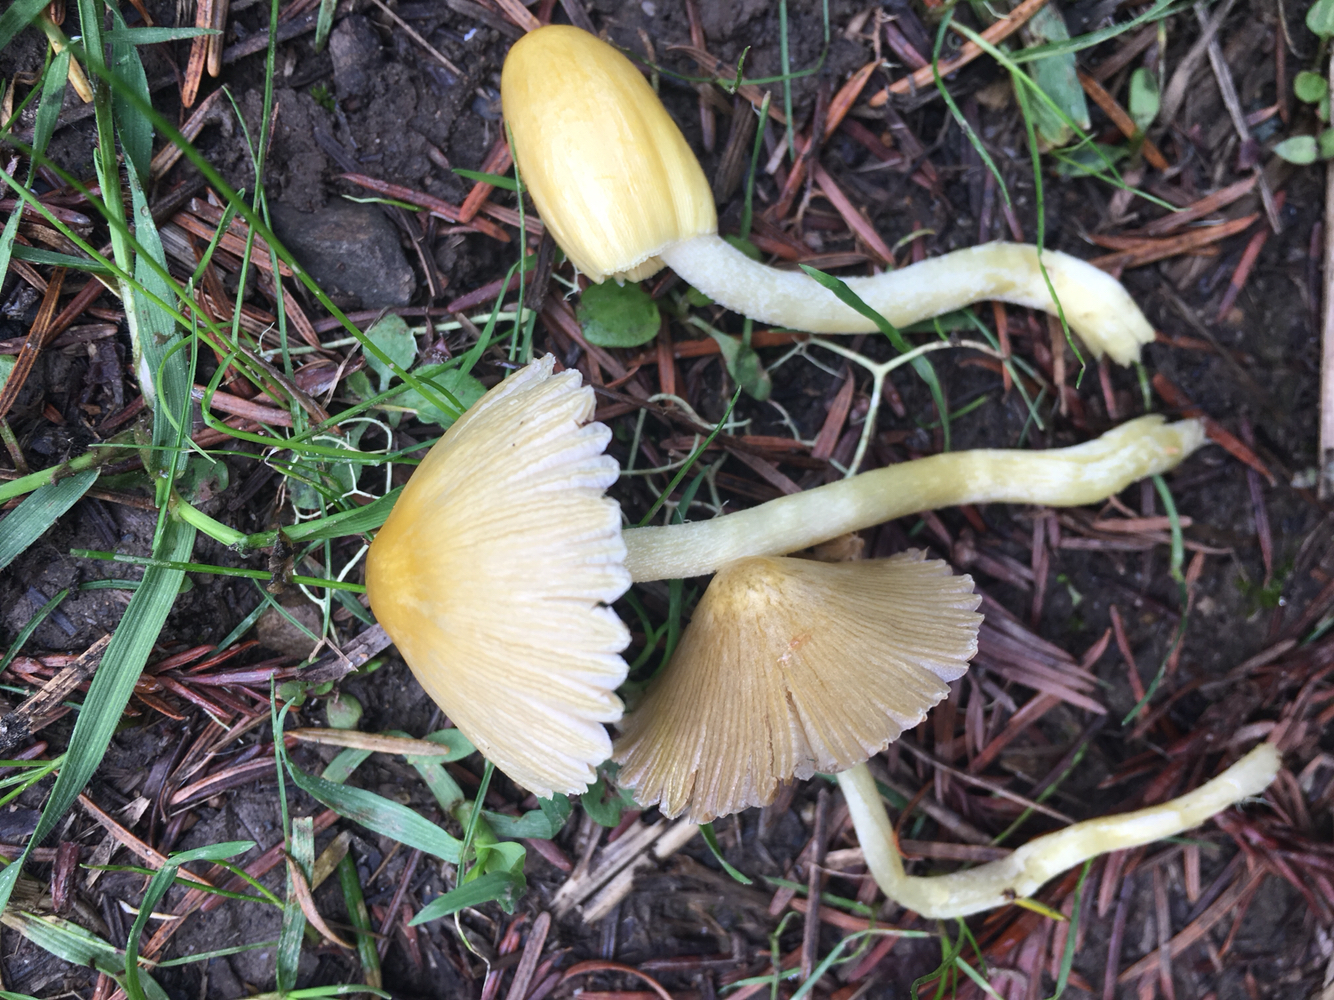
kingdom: Fungi
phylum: Basidiomycota
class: Agaricomycetes
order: Agaricales
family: Bolbitiaceae
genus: Bolbitius
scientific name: Bolbitius titubans
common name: Yellow fieldcap
